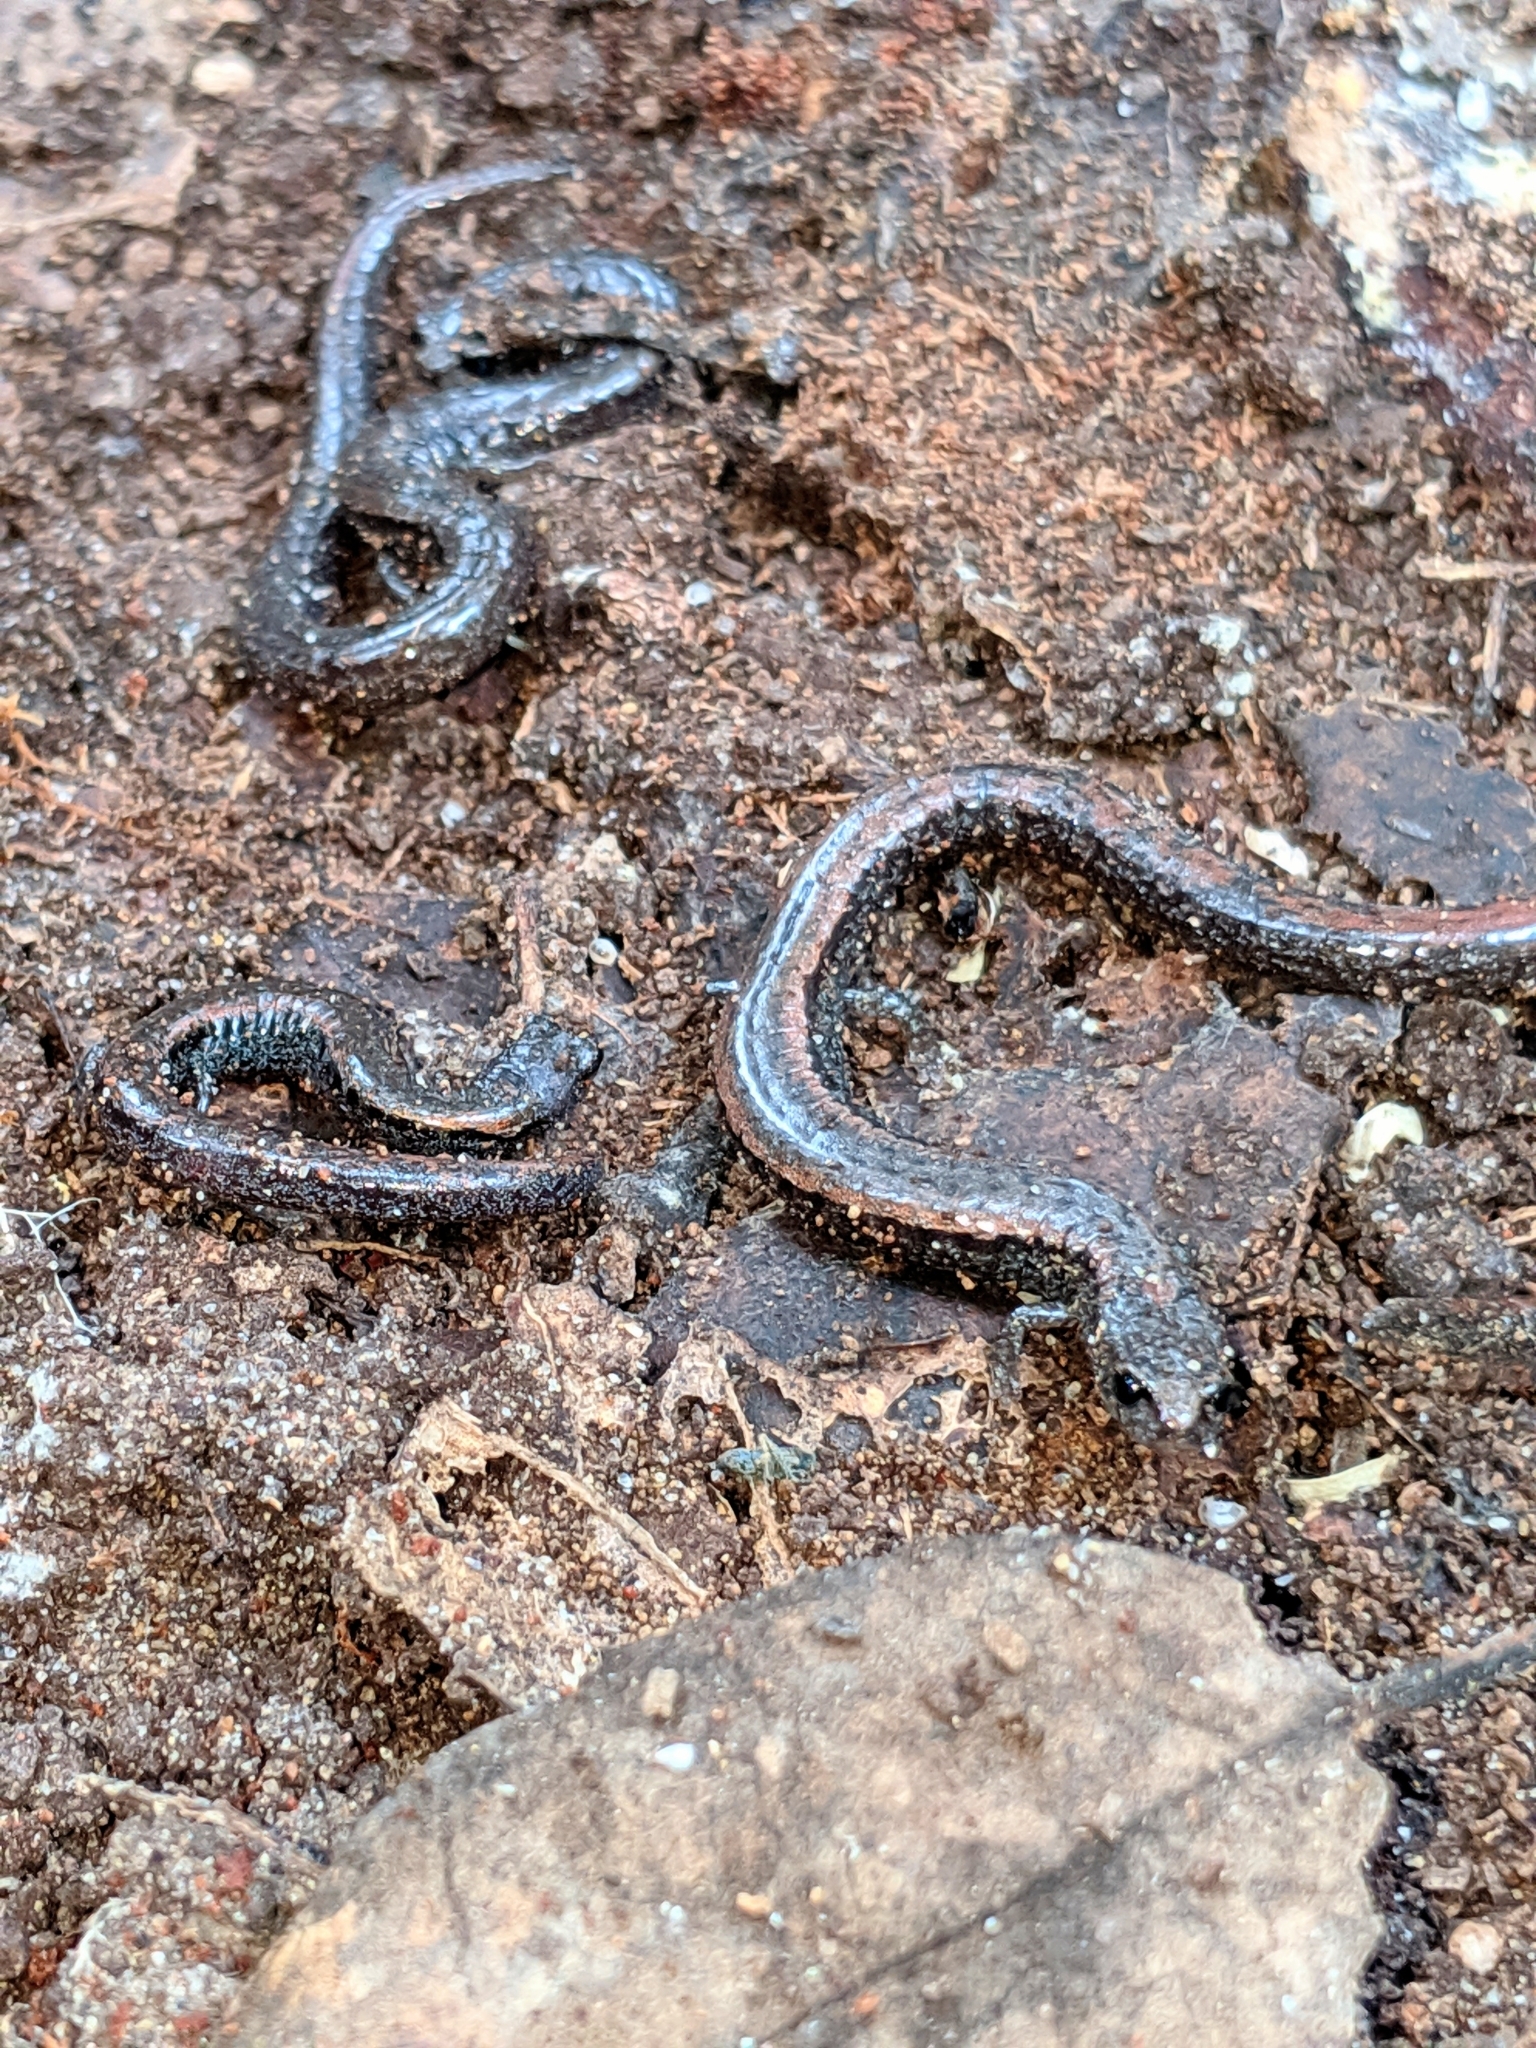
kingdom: Animalia
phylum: Chordata
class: Amphibia
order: Caudata
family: Plethodontidae
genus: Batrachoseps
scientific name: Batrachoseps nigriventris
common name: Black-bellied slender salamander
